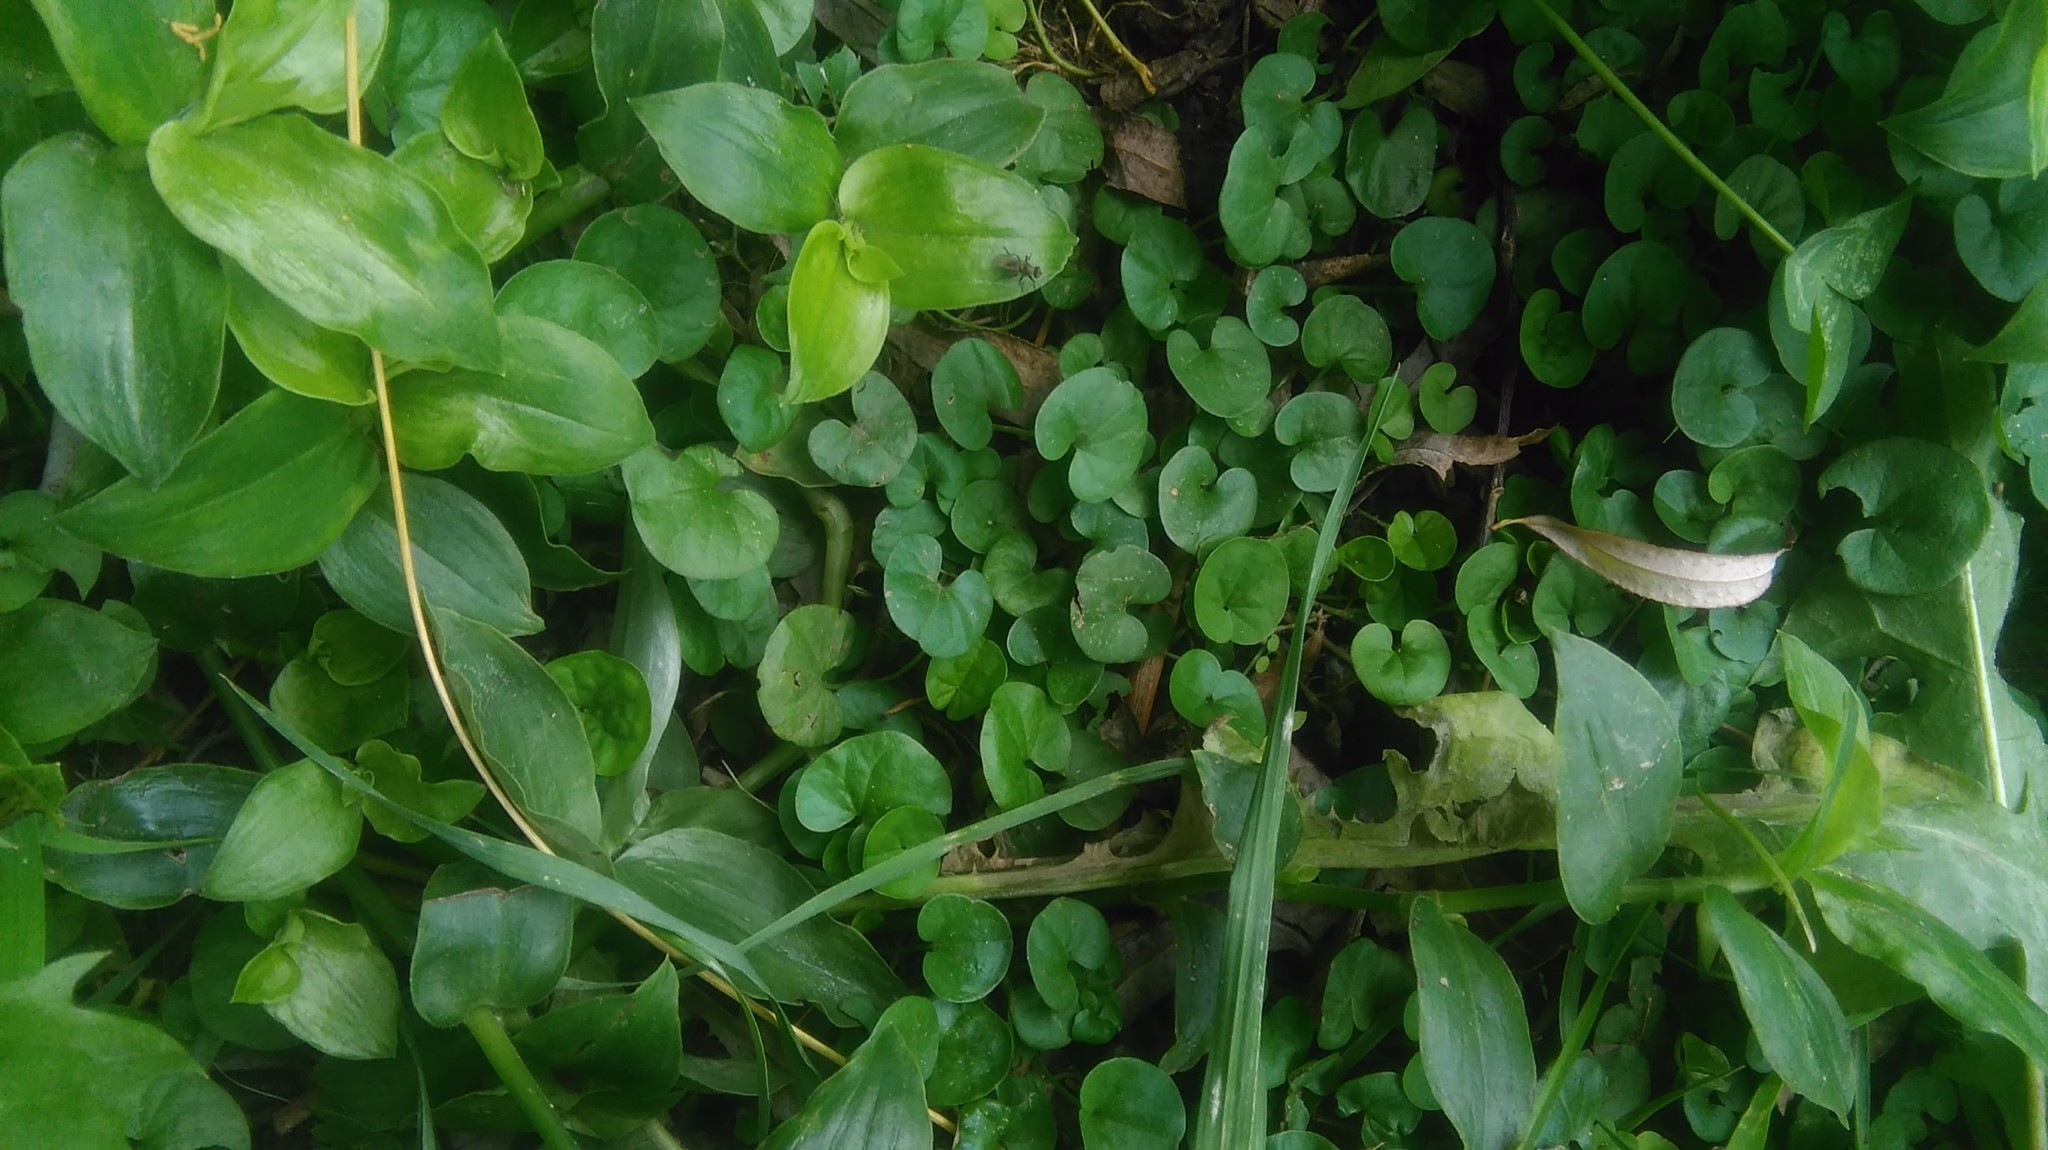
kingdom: Plantae
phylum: Tracheophyta
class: Magnoliopsida
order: Solanales
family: Convolvulaceae
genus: Dichondra
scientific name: Dichondra repens
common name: Kidneyweed
